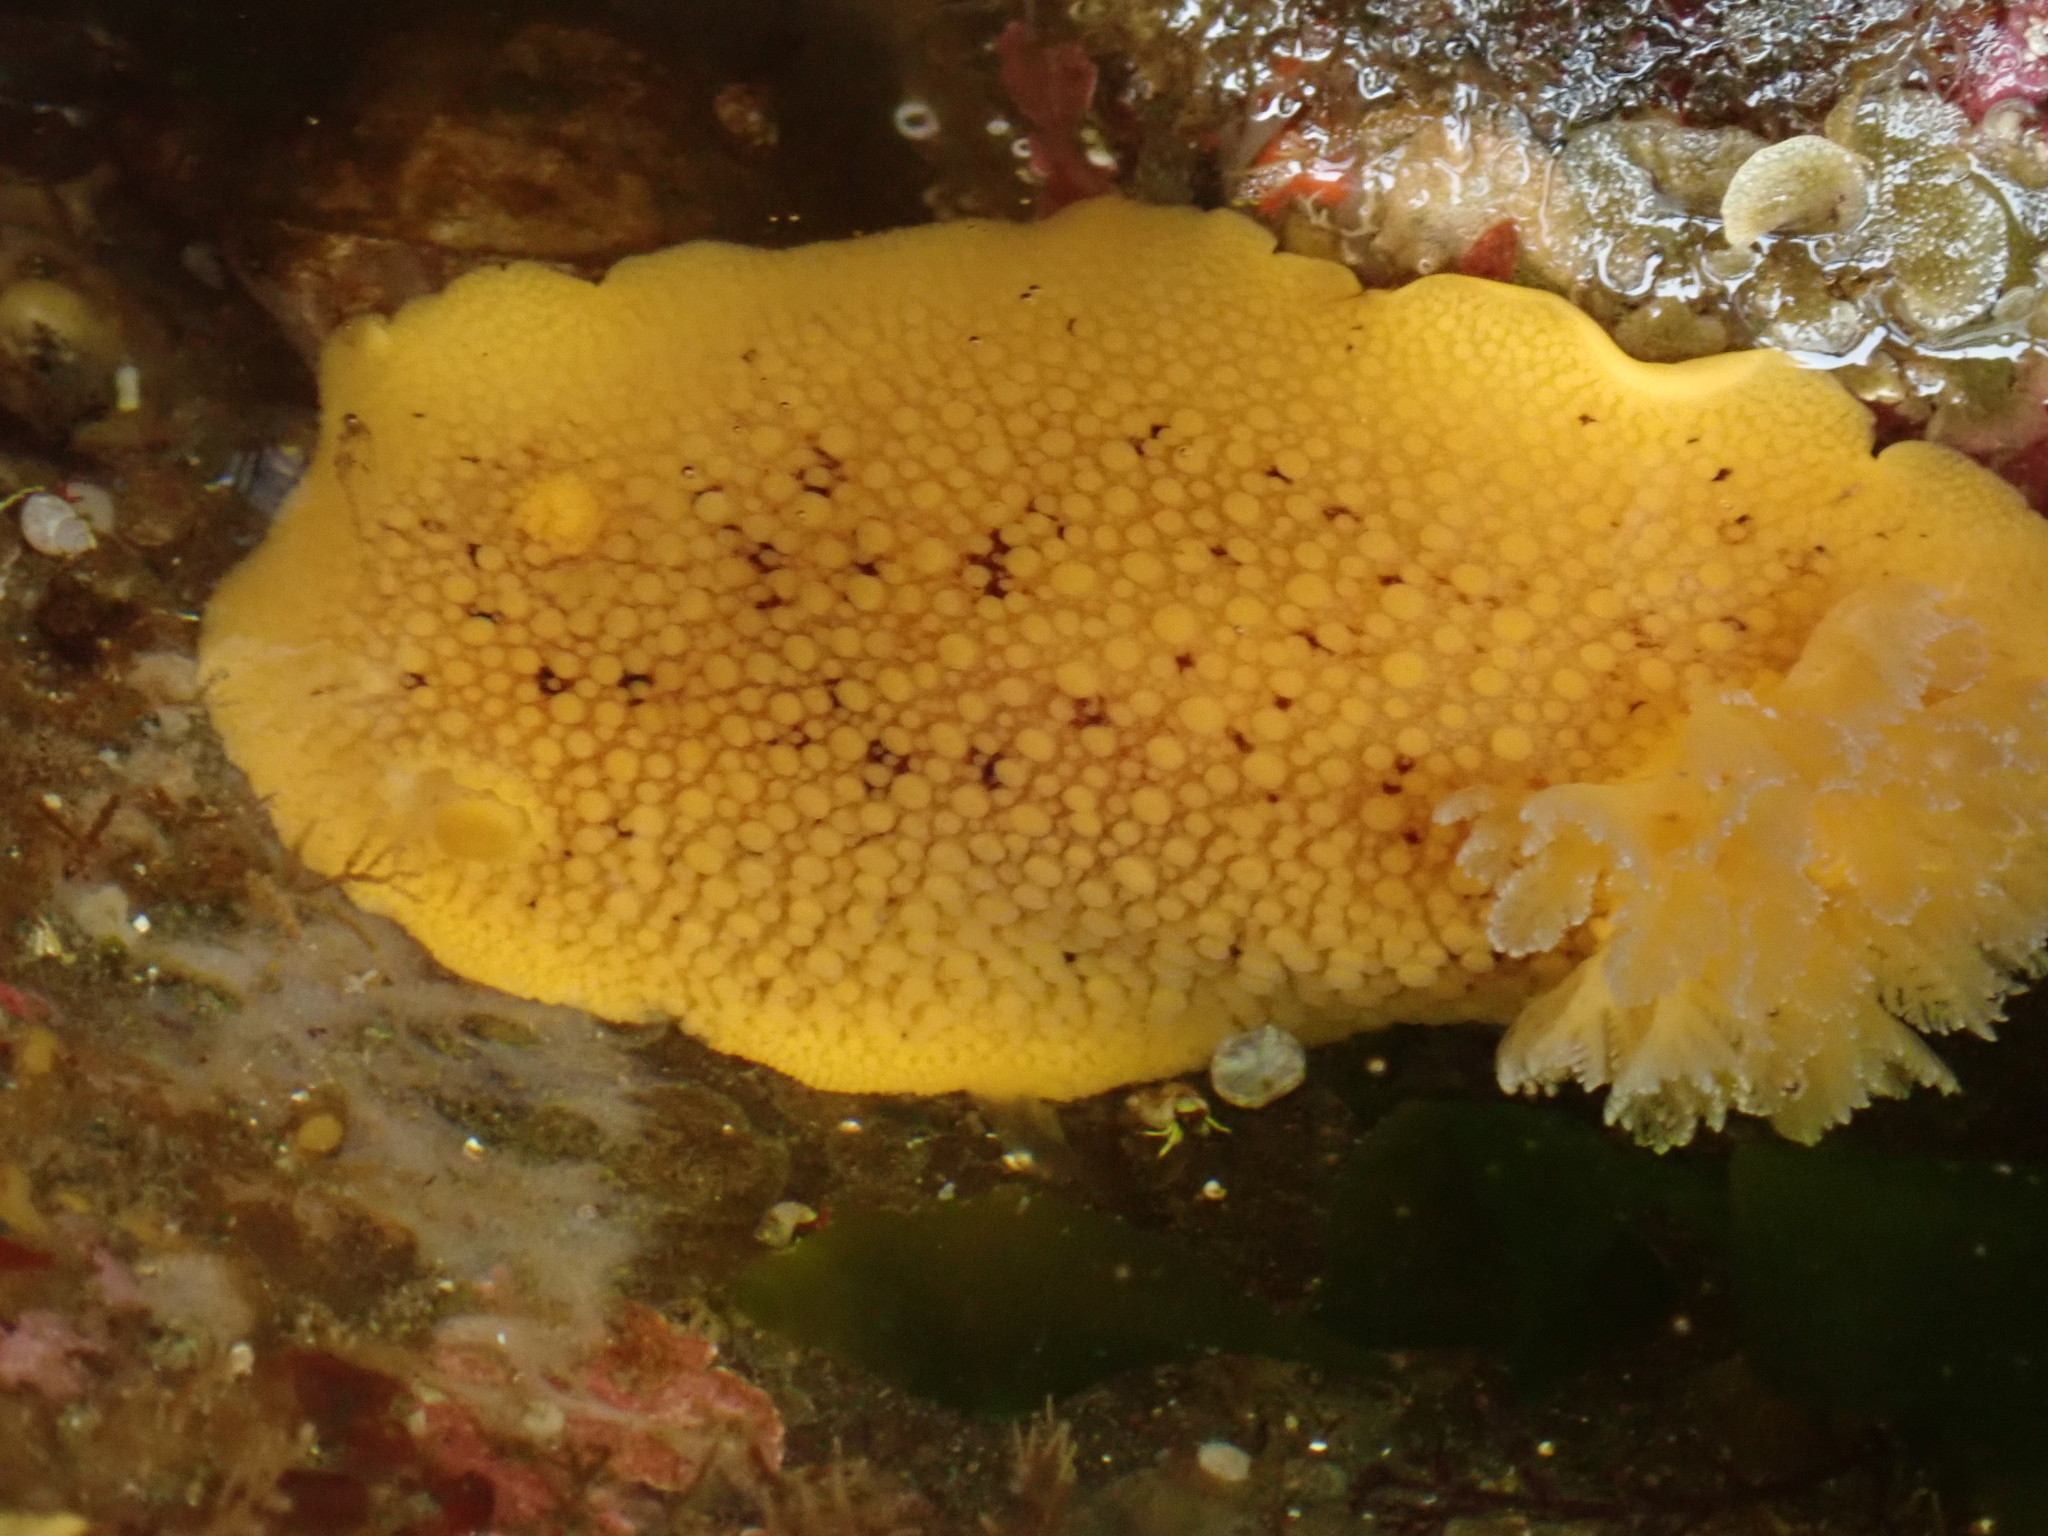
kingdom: Animalia
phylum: Mollusca
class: Gastropoda
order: Nudibranchia
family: Discodorididae
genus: Peltodoris
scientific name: Peltodoris nobilis
